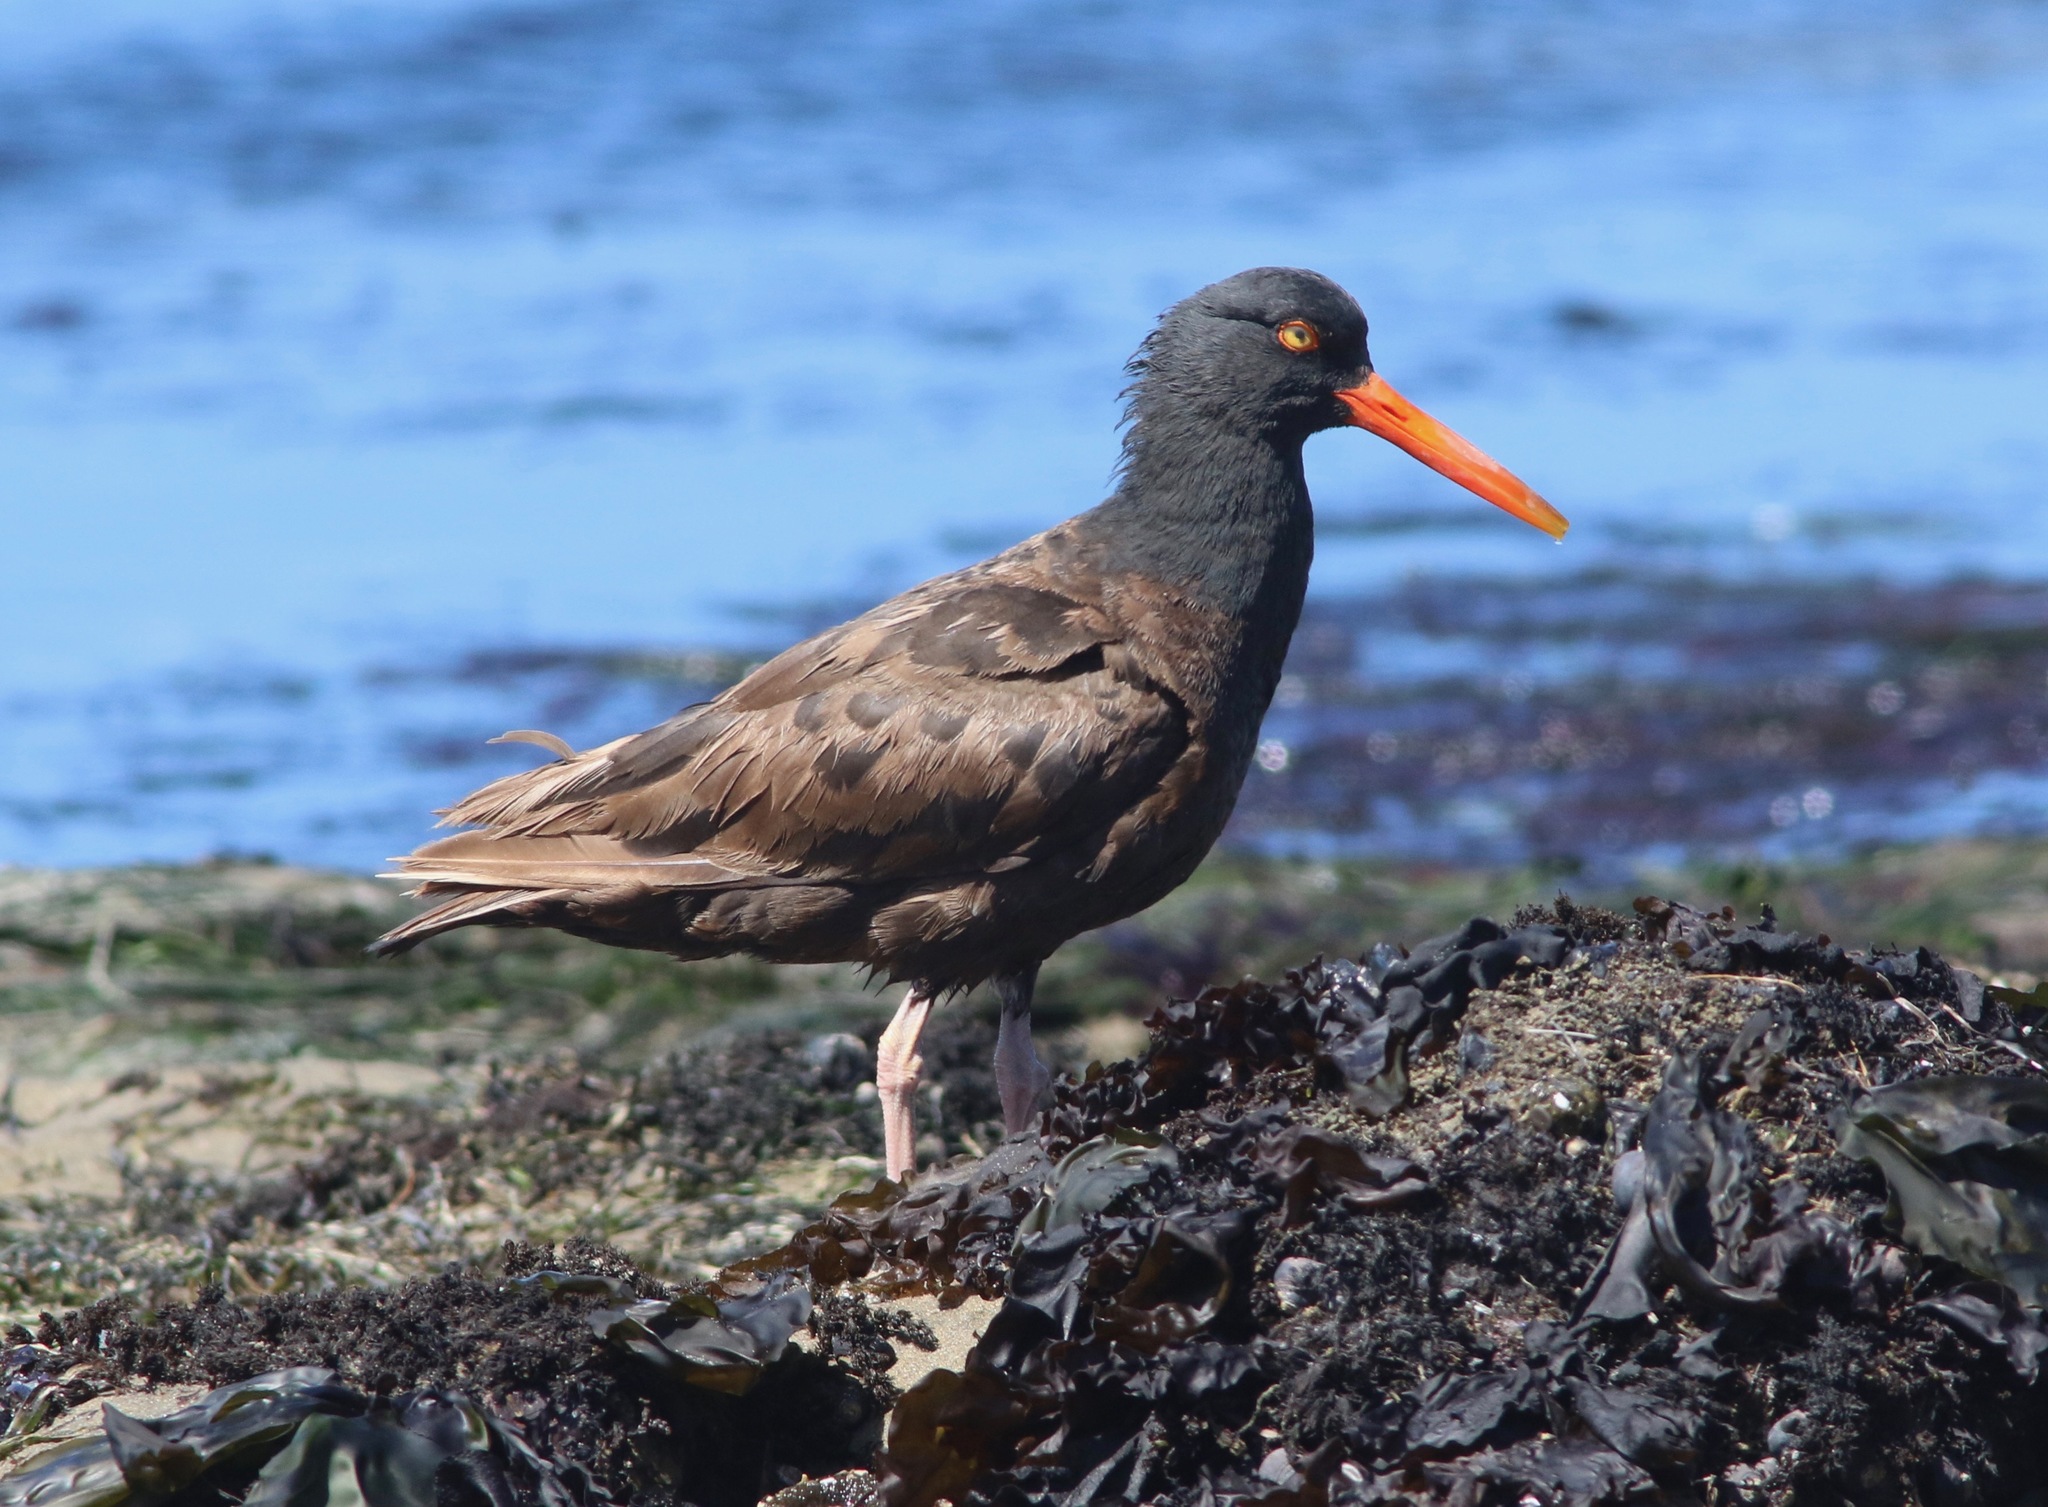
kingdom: Animalia
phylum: Chordata
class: Aves
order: Charadriiformes
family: Haematopodidae
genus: Haematopus
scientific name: Haematopus bachmani
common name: Black oystercatcher
